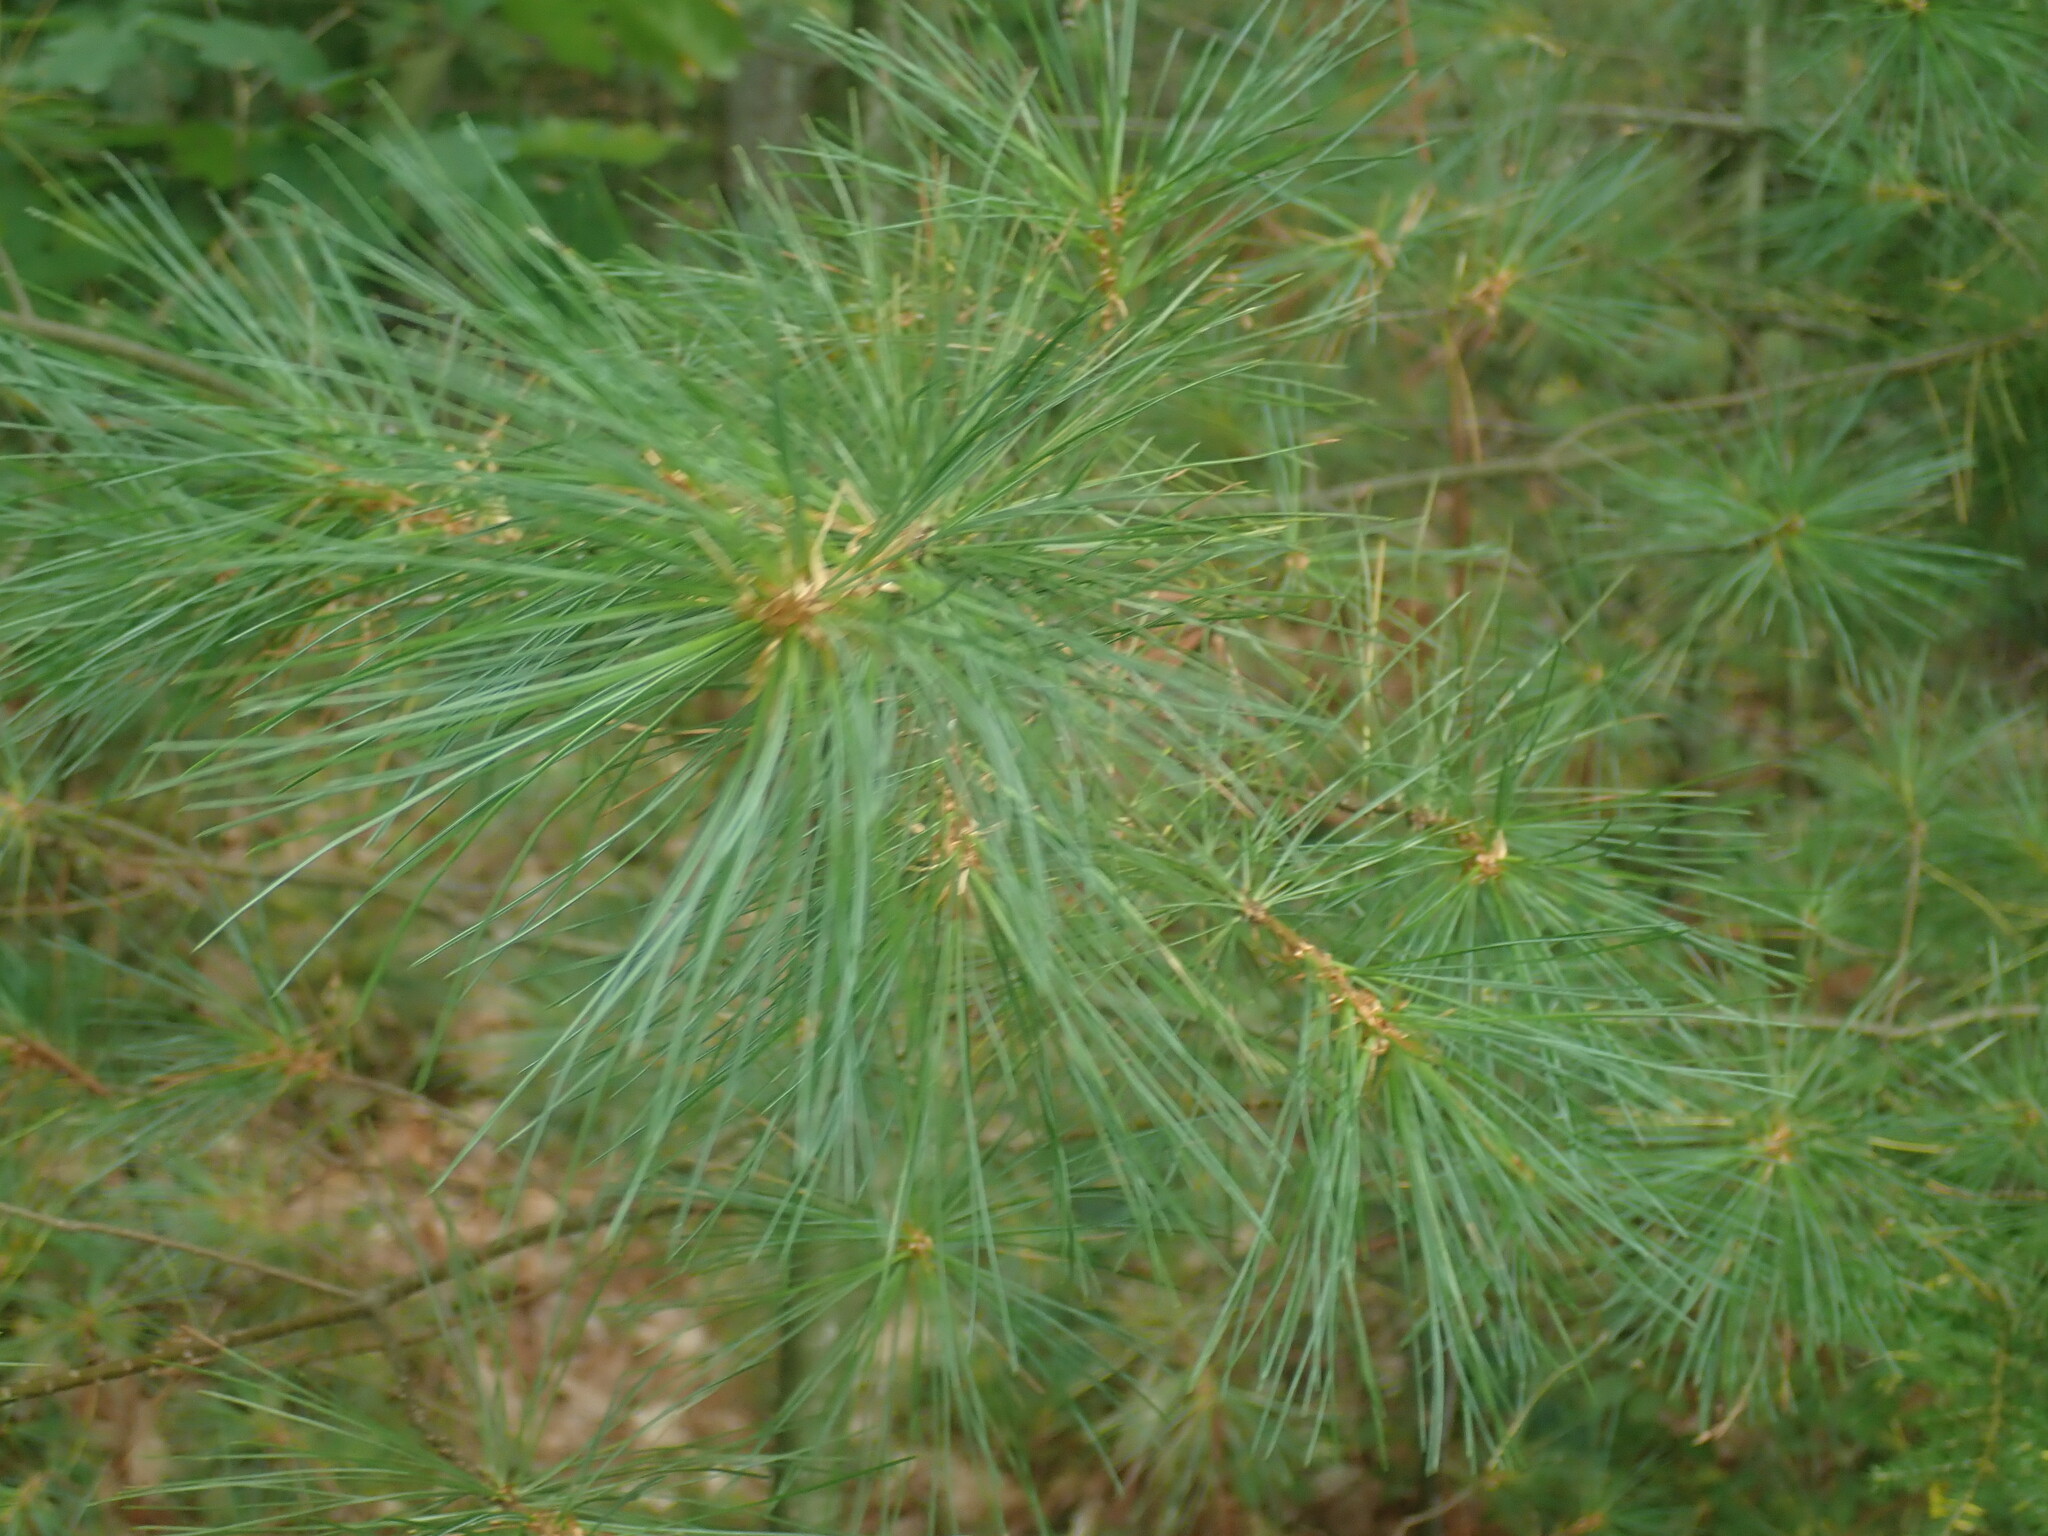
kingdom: Plantae
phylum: Tracheophyta
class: Pinopsida
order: Pinales
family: Pinaceae
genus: Pinus
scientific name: Pinus strobus
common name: Weymouth pine
